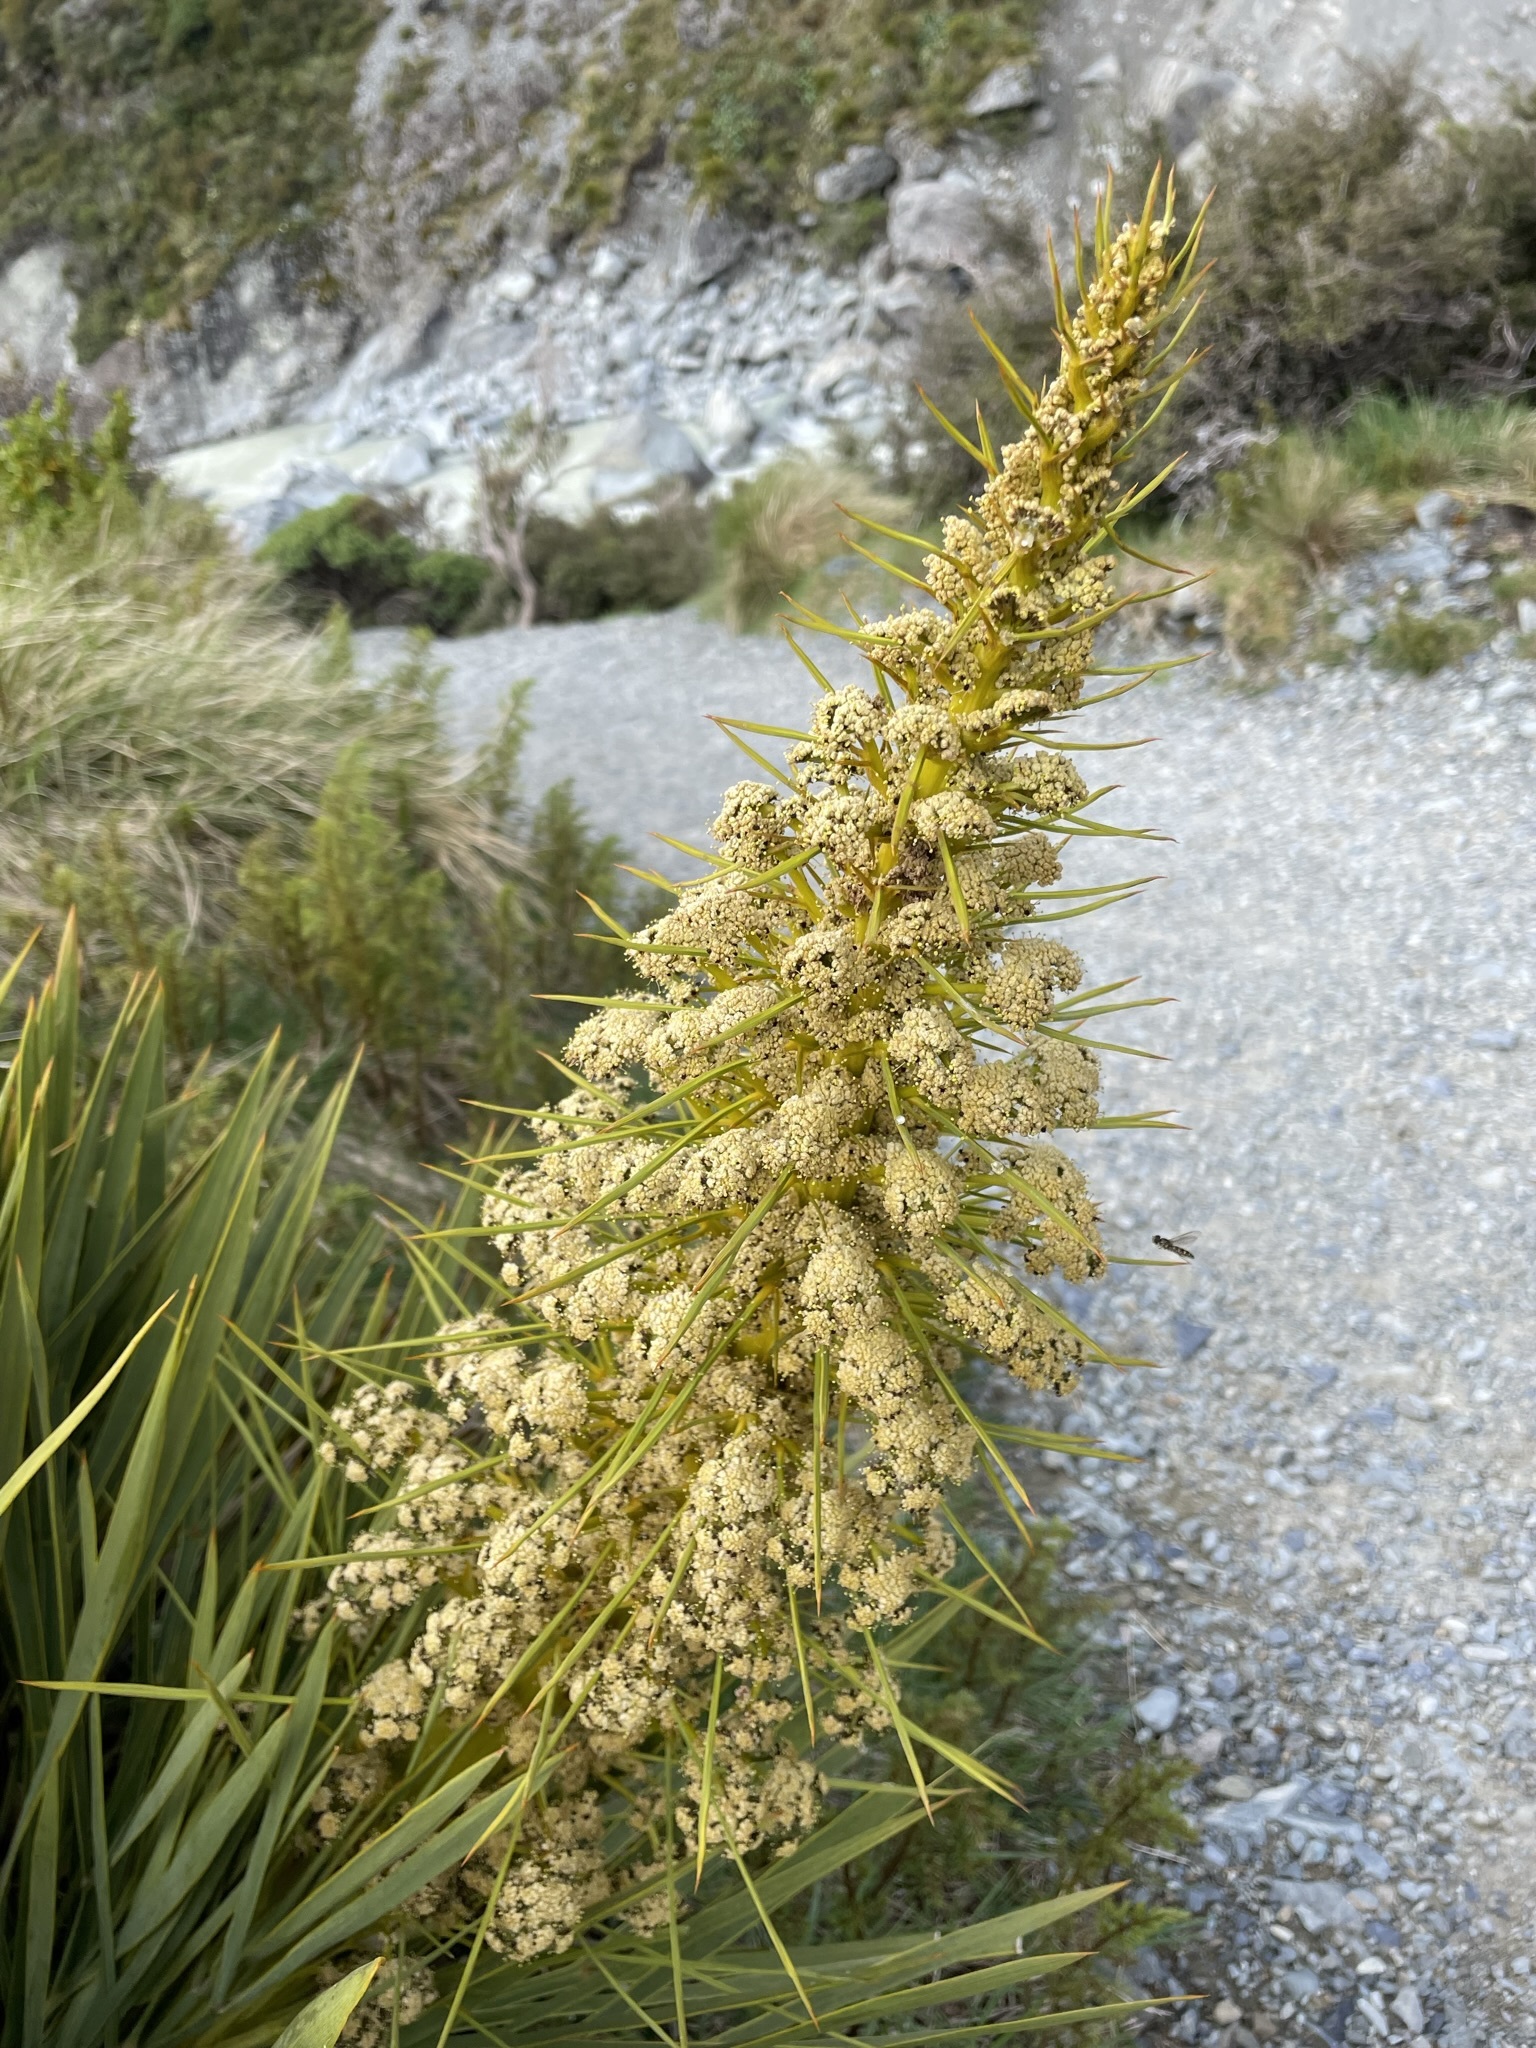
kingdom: Plantae
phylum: Tracheophyta
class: Magnoliopsida
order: Apiales
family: Apiaceae
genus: Aciphylla
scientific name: Aciphylla aurea
